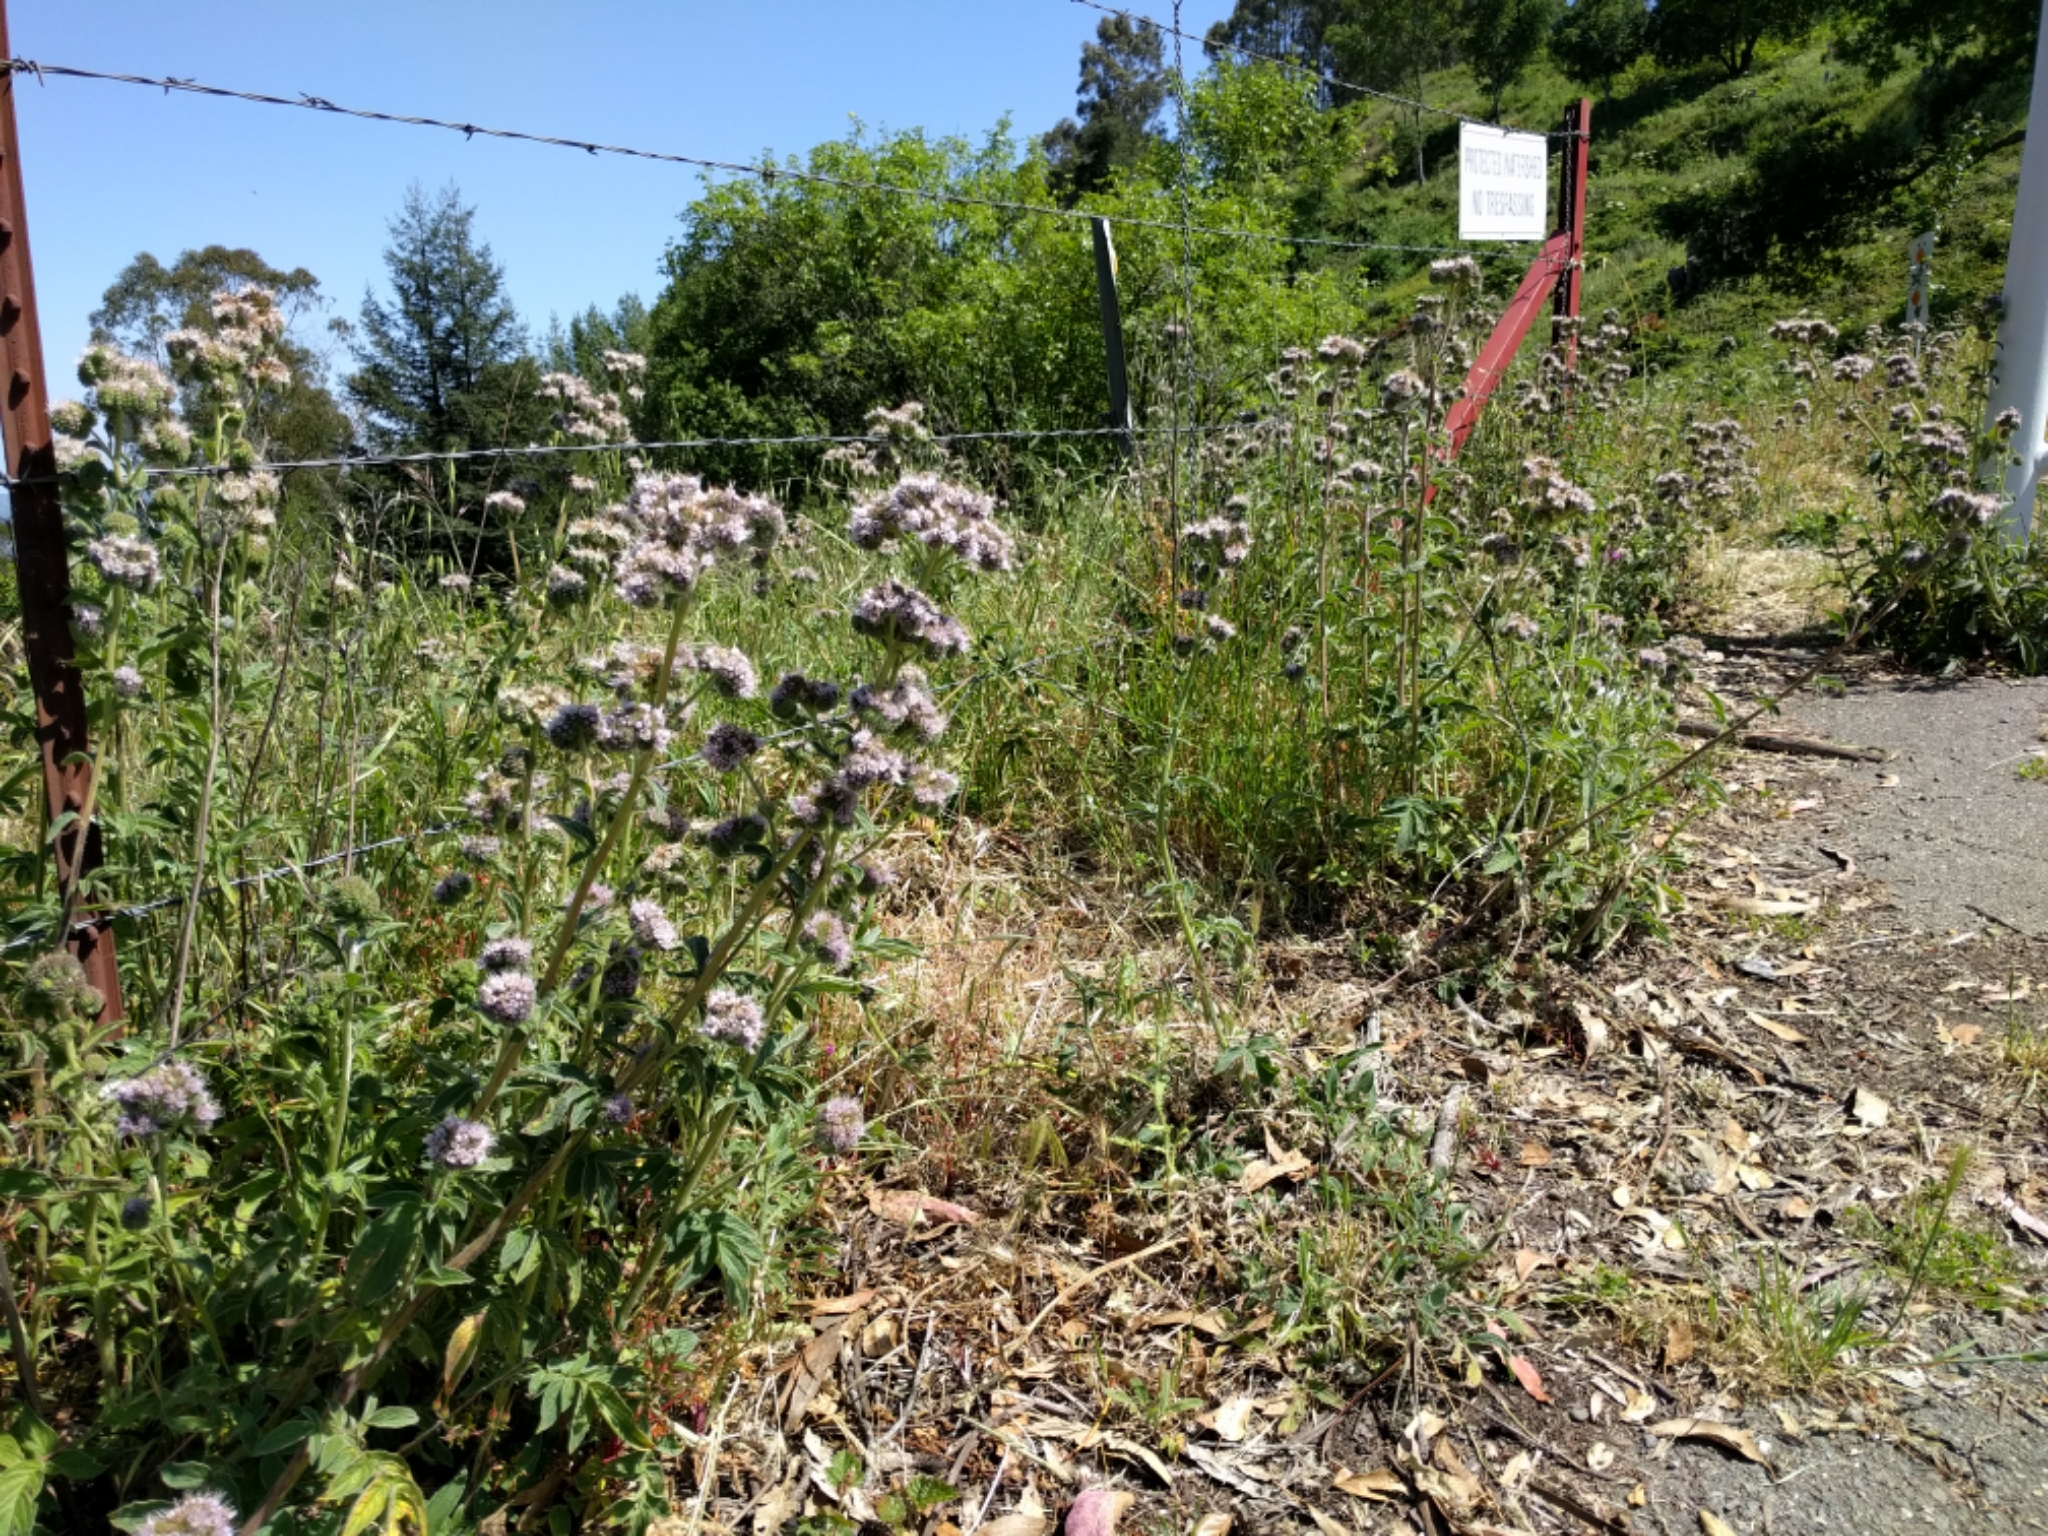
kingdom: Plantae
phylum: Tracheophyta
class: Magnoliopsida
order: Boraginales
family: Hydrophyllaceae
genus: Phacelia
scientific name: Phacelia californica
